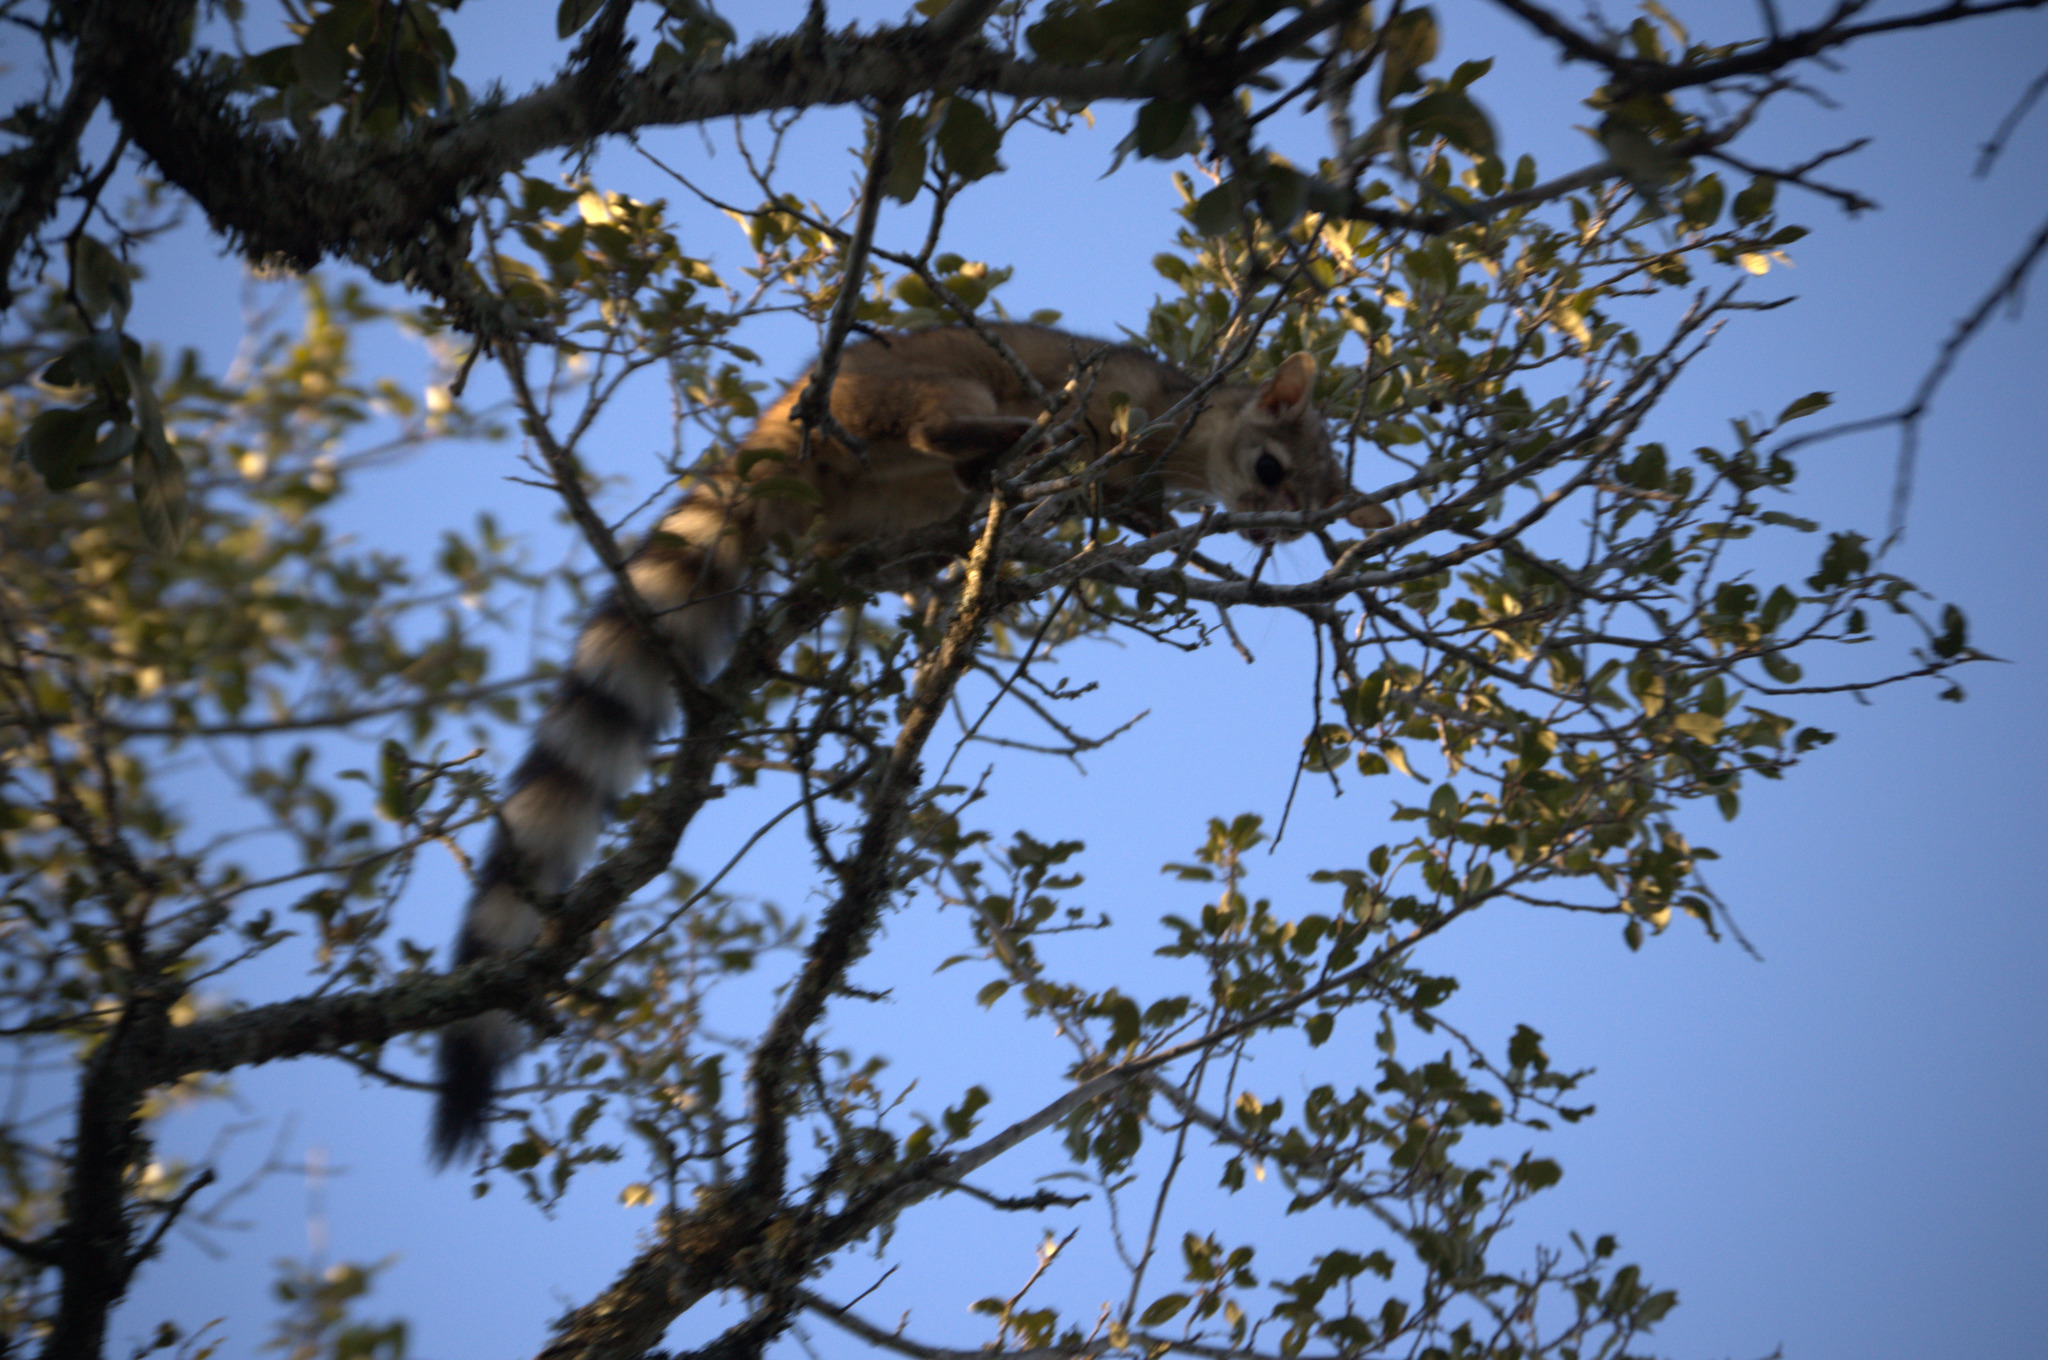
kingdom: Animalia
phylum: Chordata
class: Mammalia
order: Carnivora
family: Procyonidae
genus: Bassariscus
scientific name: Bassariscus astutus
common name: Ringtail
